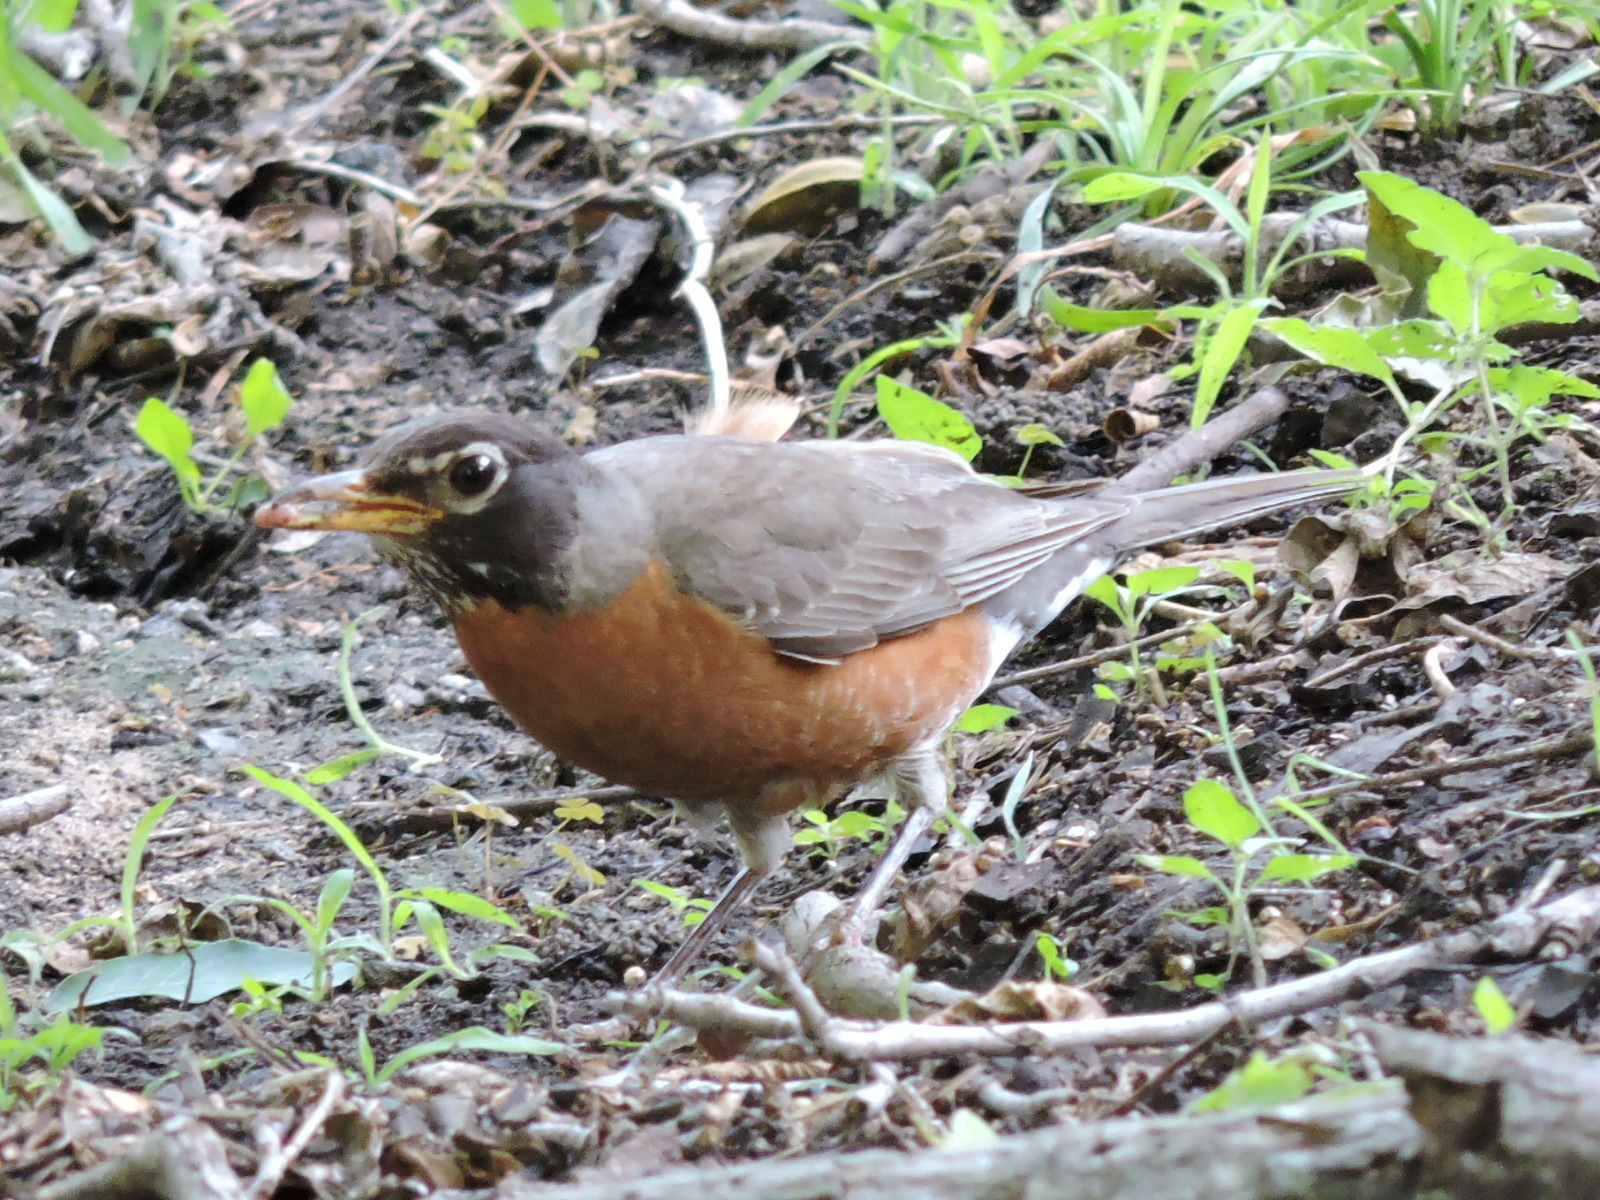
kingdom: Animalia
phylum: Chordata
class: Aves
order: Passeriformes
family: Turdidae
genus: Turdus
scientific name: Turdus migratorius
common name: American robin
